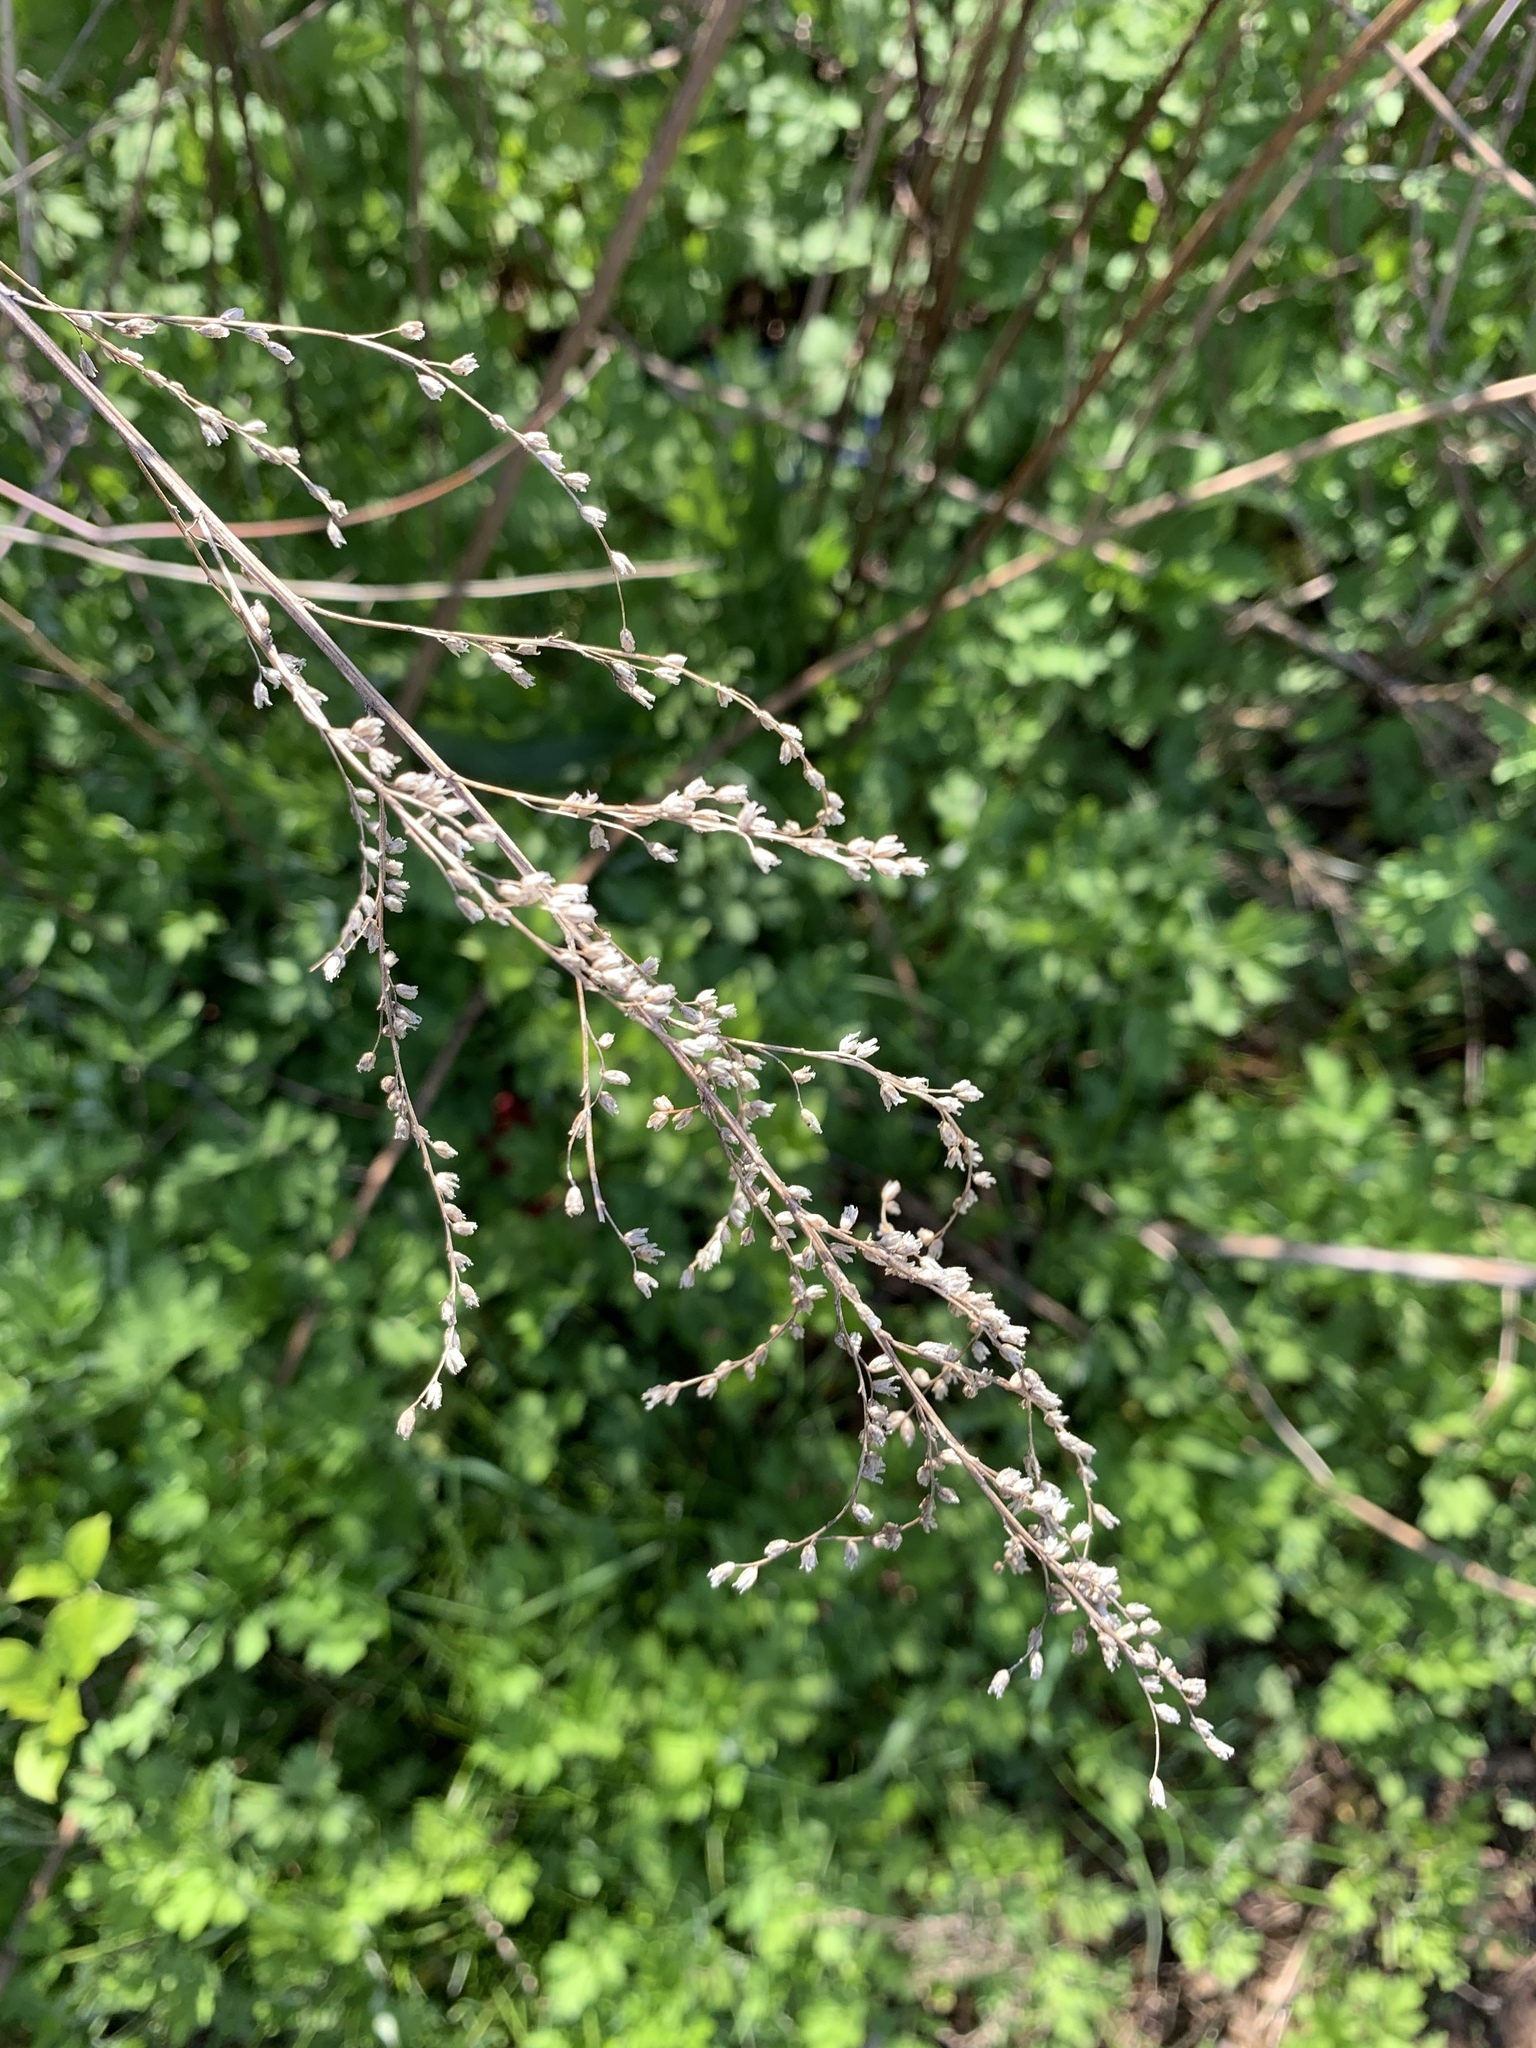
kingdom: Plantae
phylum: Tracheophyta
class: Magnoliopsida
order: Asterales
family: Asteraceae
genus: Artemisia
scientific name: Artemisia vulgaris
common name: Mugwort
